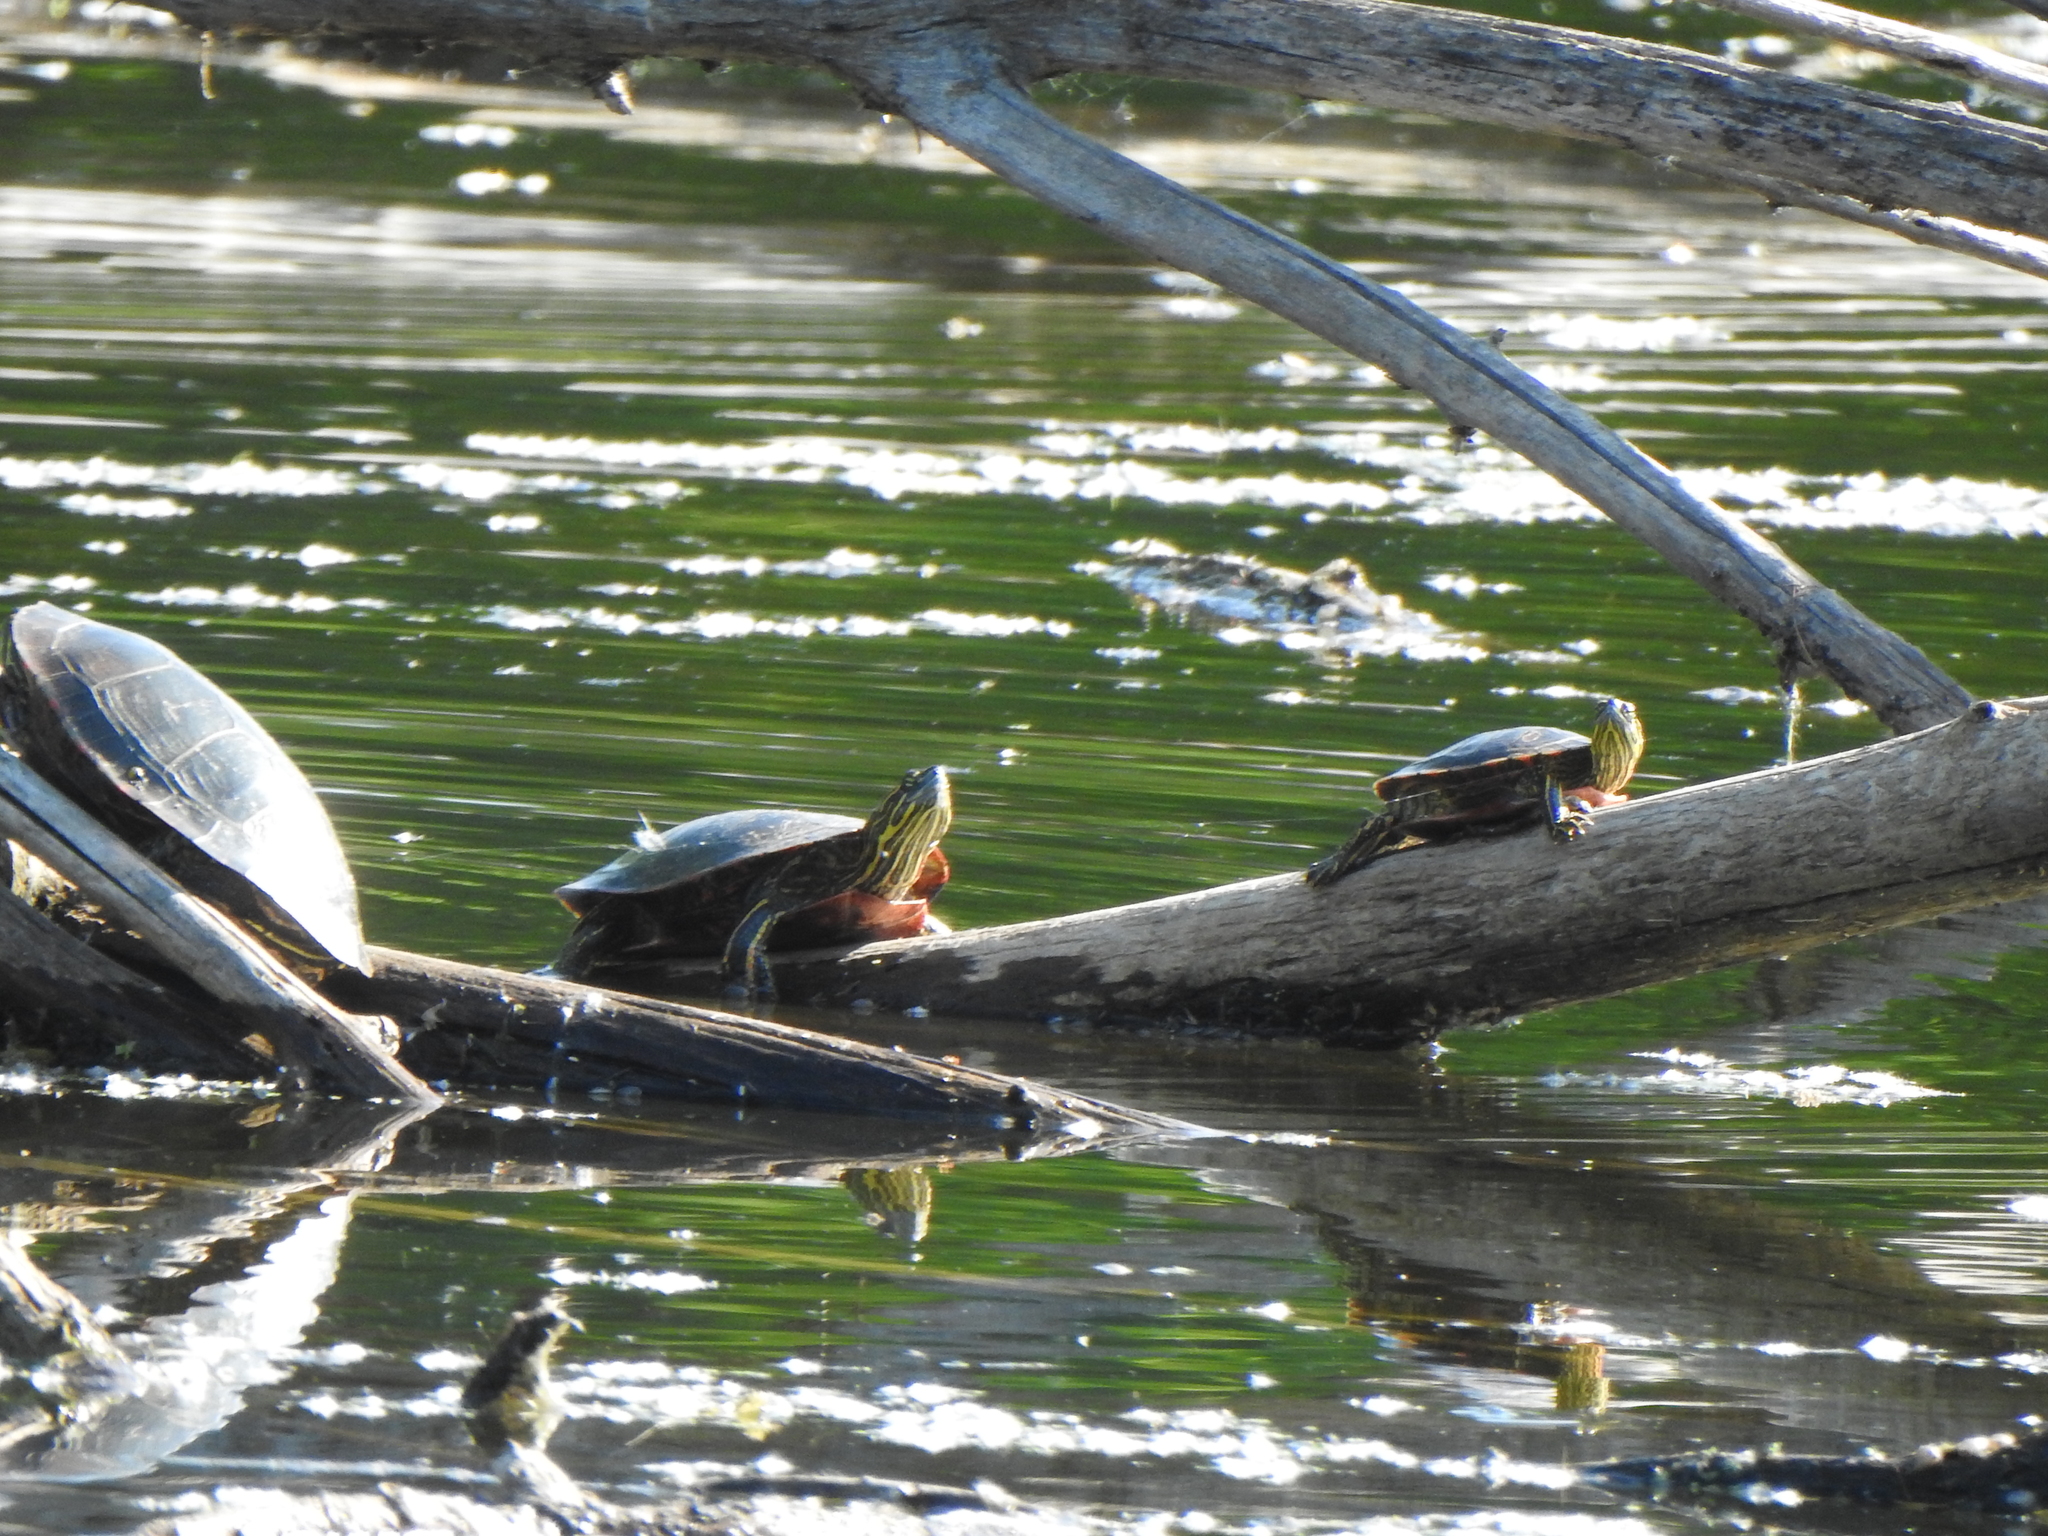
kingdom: Animalia
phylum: Chordata
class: Testudines
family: Emydidae
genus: Chrysemys
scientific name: Chrysemys picta
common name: Painted turtle
